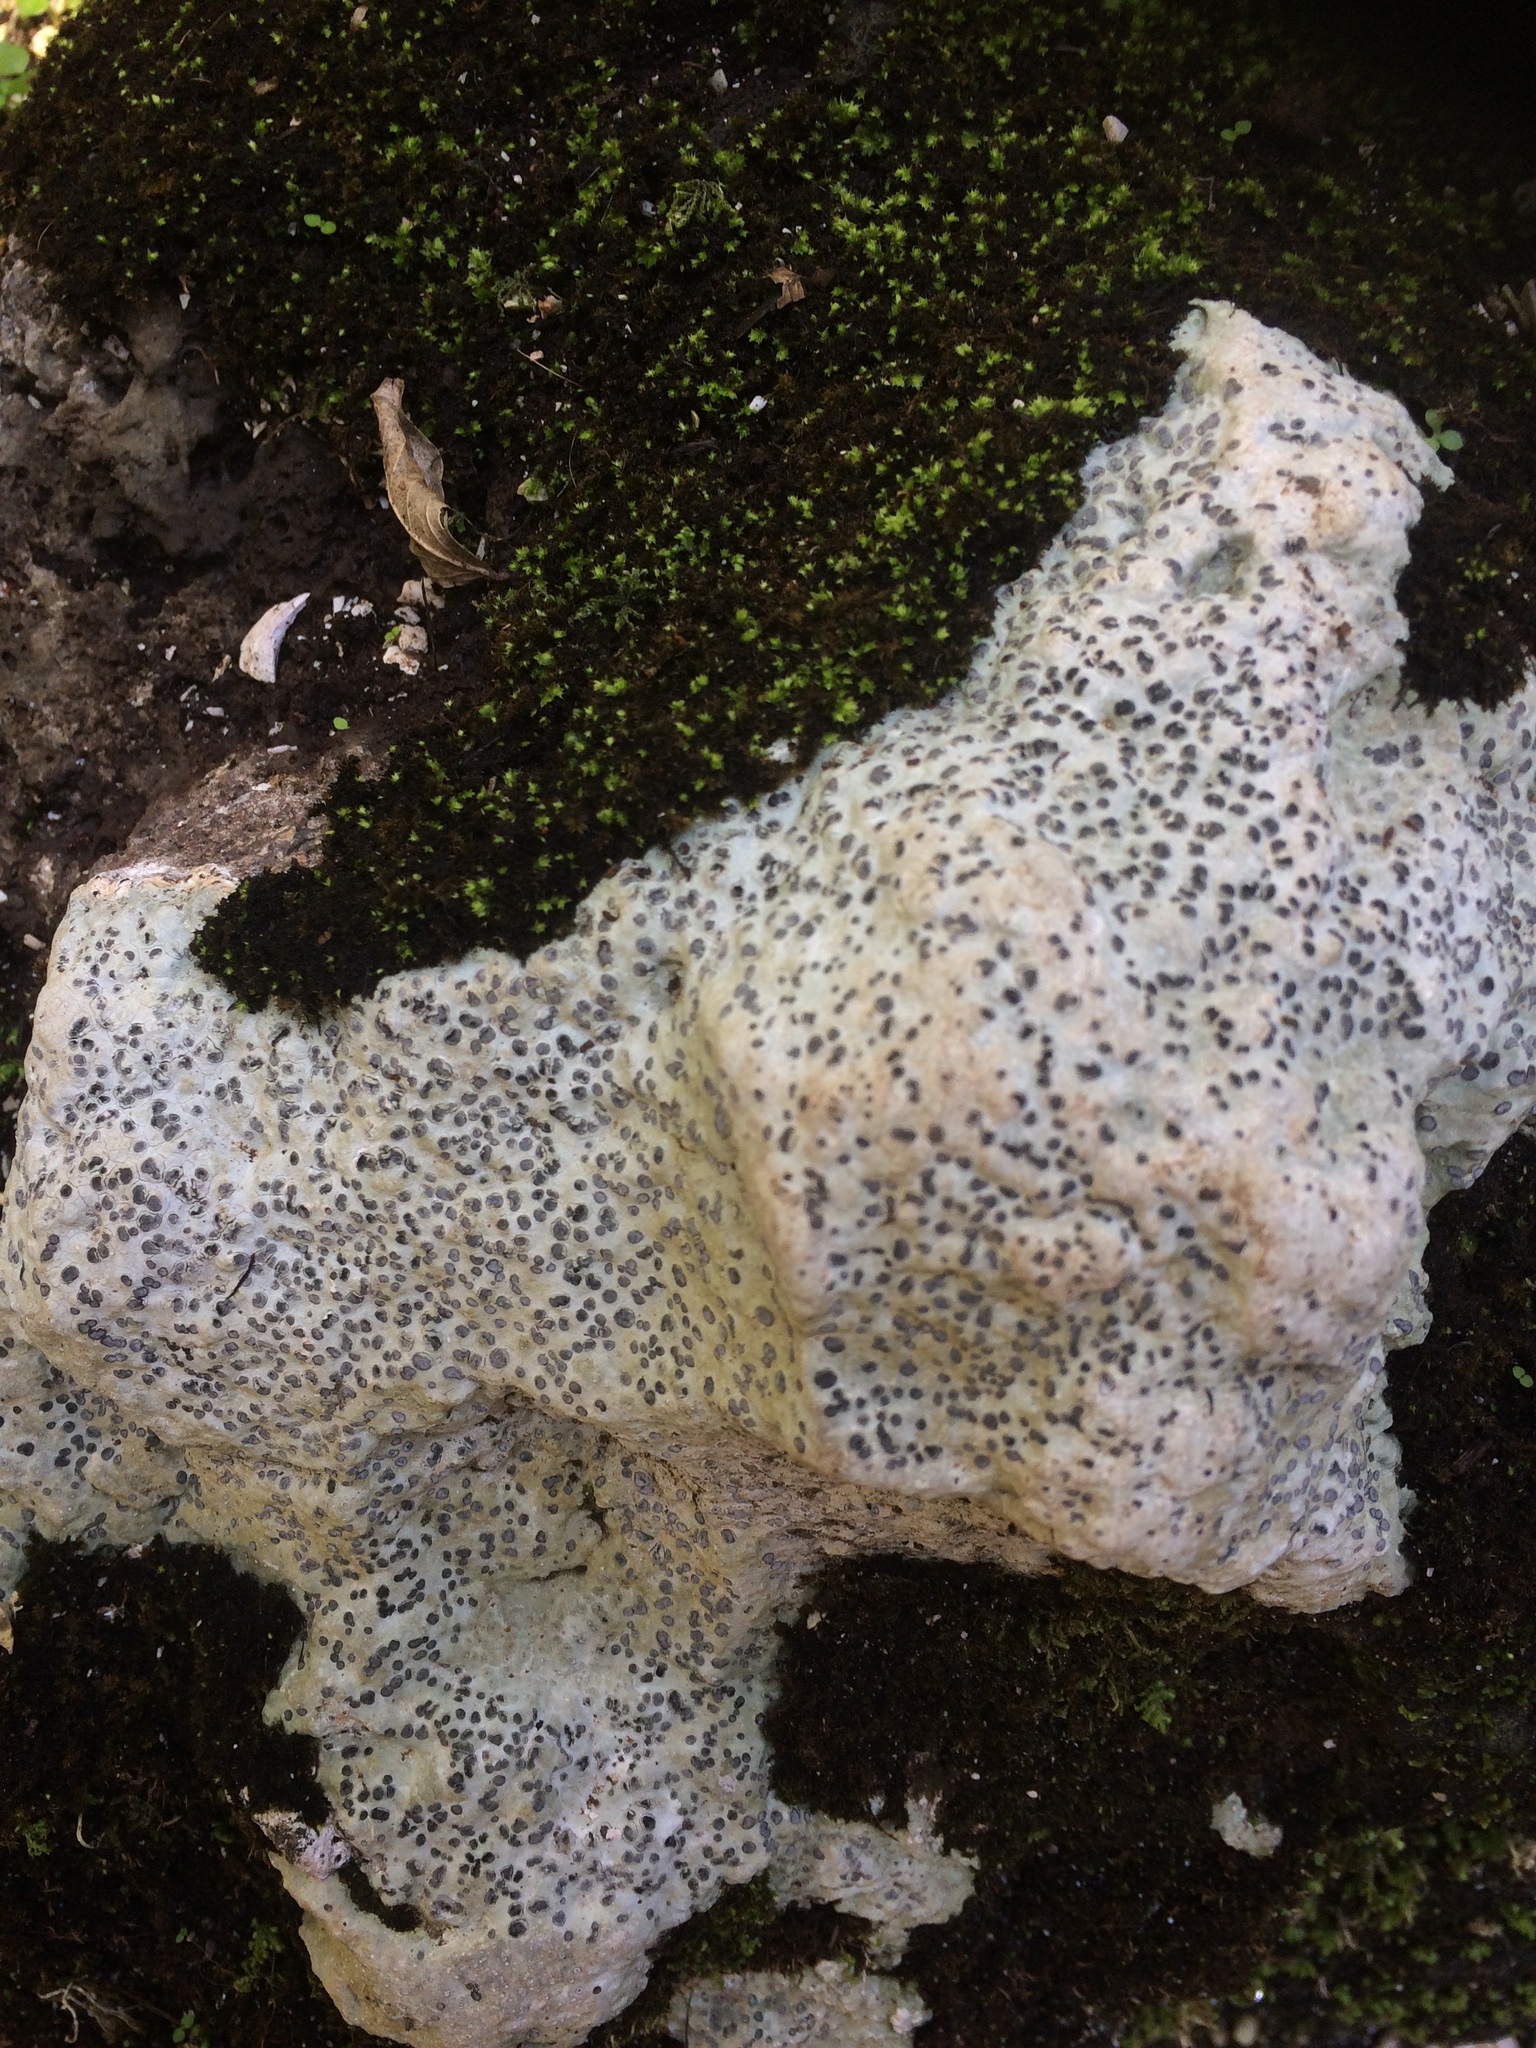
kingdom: Fungi
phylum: Ascomycota
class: Lecanoromycetes
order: Lecideales
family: Lecideaceae
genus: Porpidia
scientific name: Porpidia albocaerulescens
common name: Smokey-eyed boulder lichen
